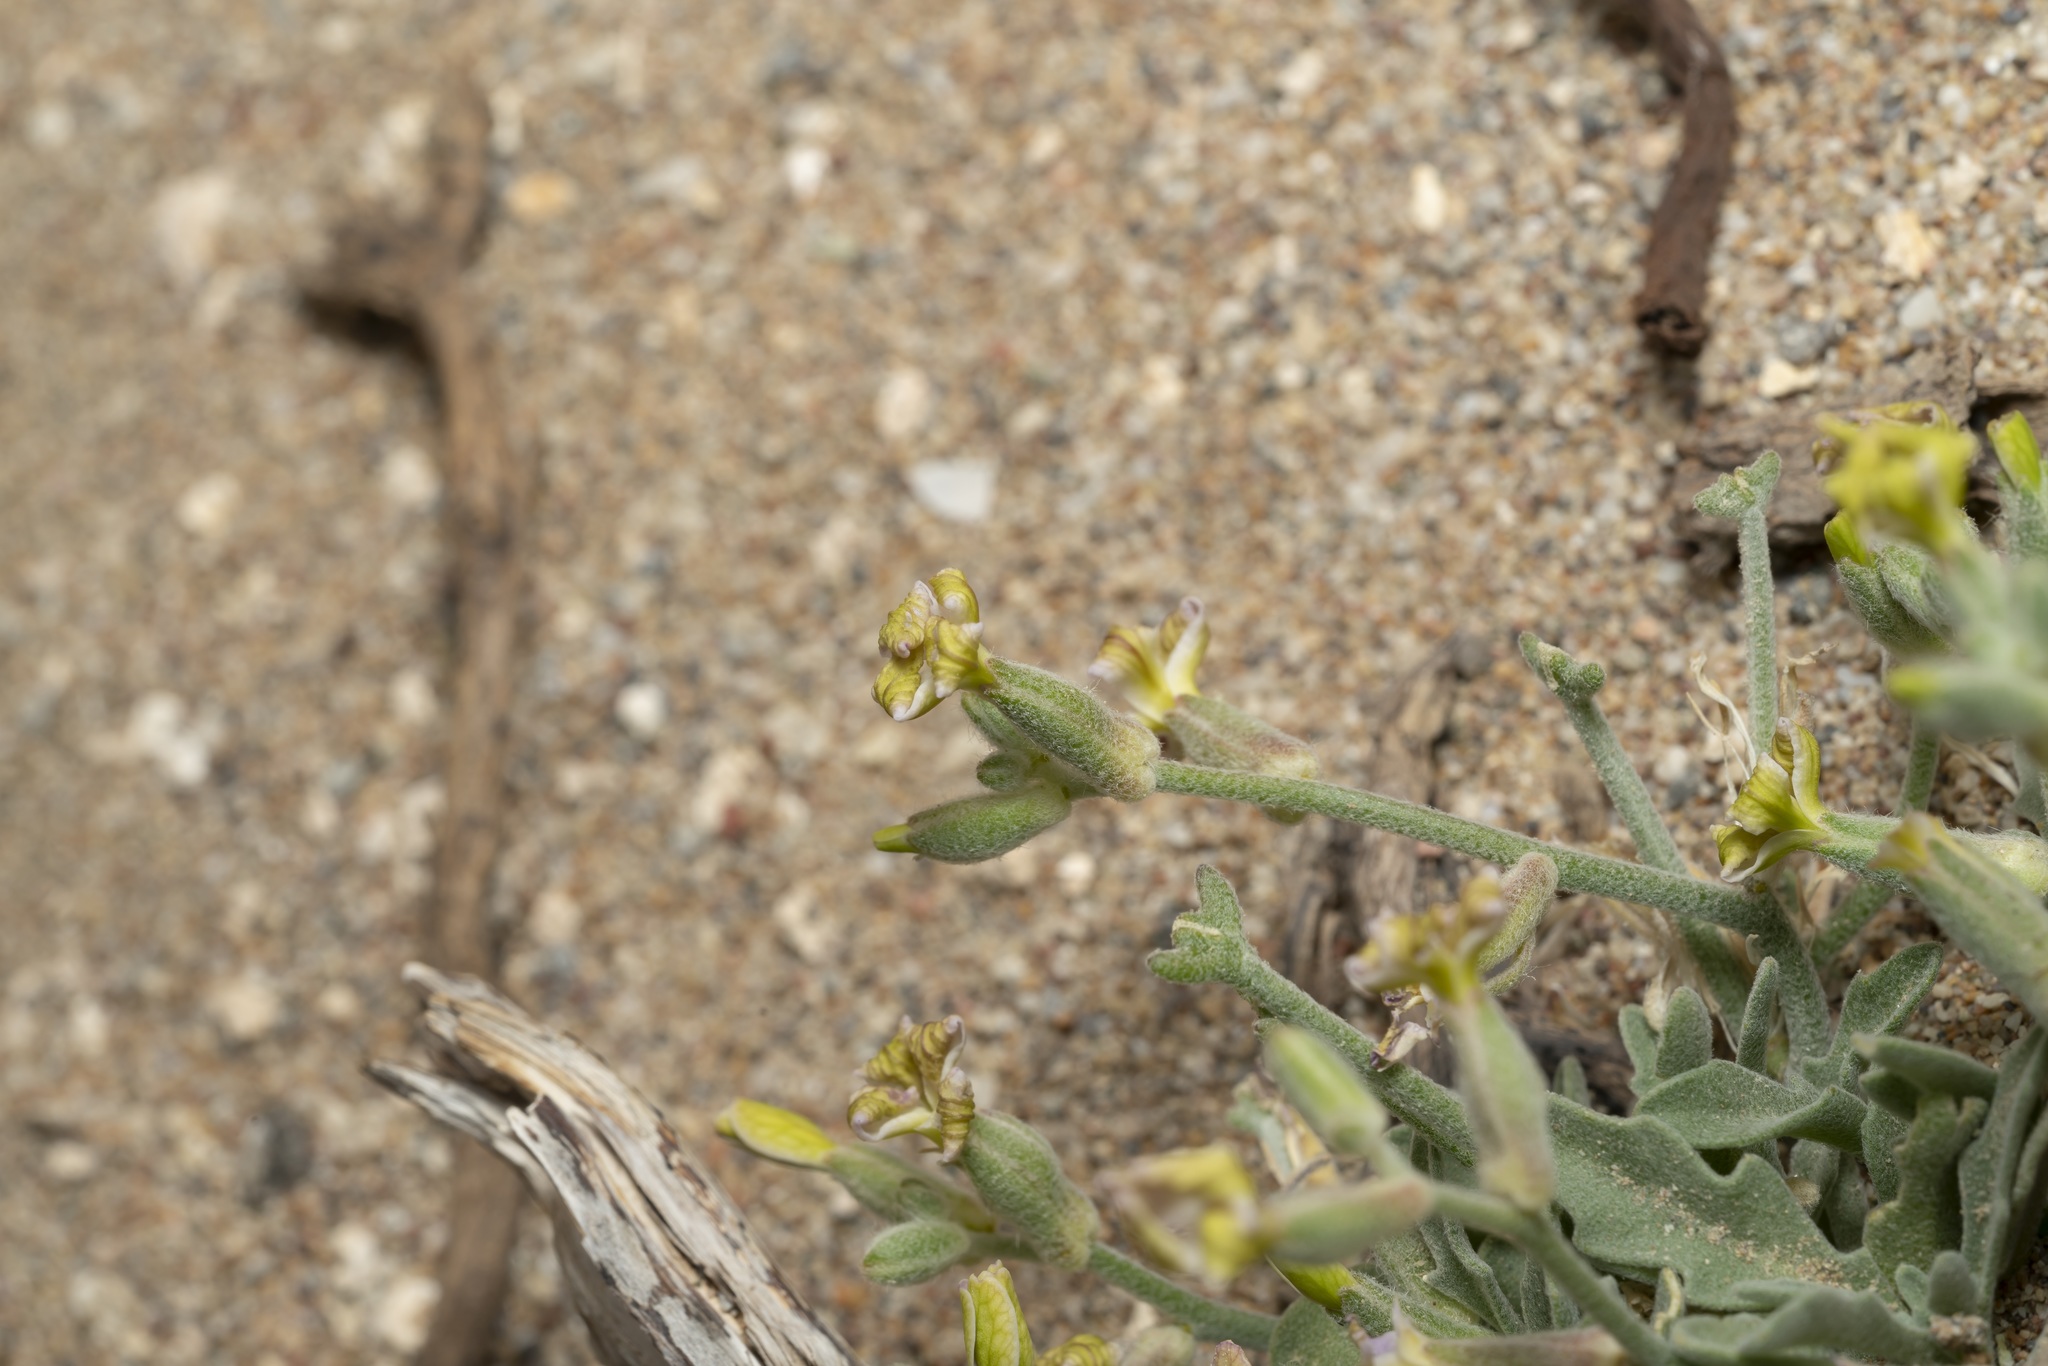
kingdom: Plantae
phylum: Tracheophyta
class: Magnoliopsida
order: Brassicales
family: Brassicaceae
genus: Matthiola
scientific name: Matthiola longipetala
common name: Night-scented stock
